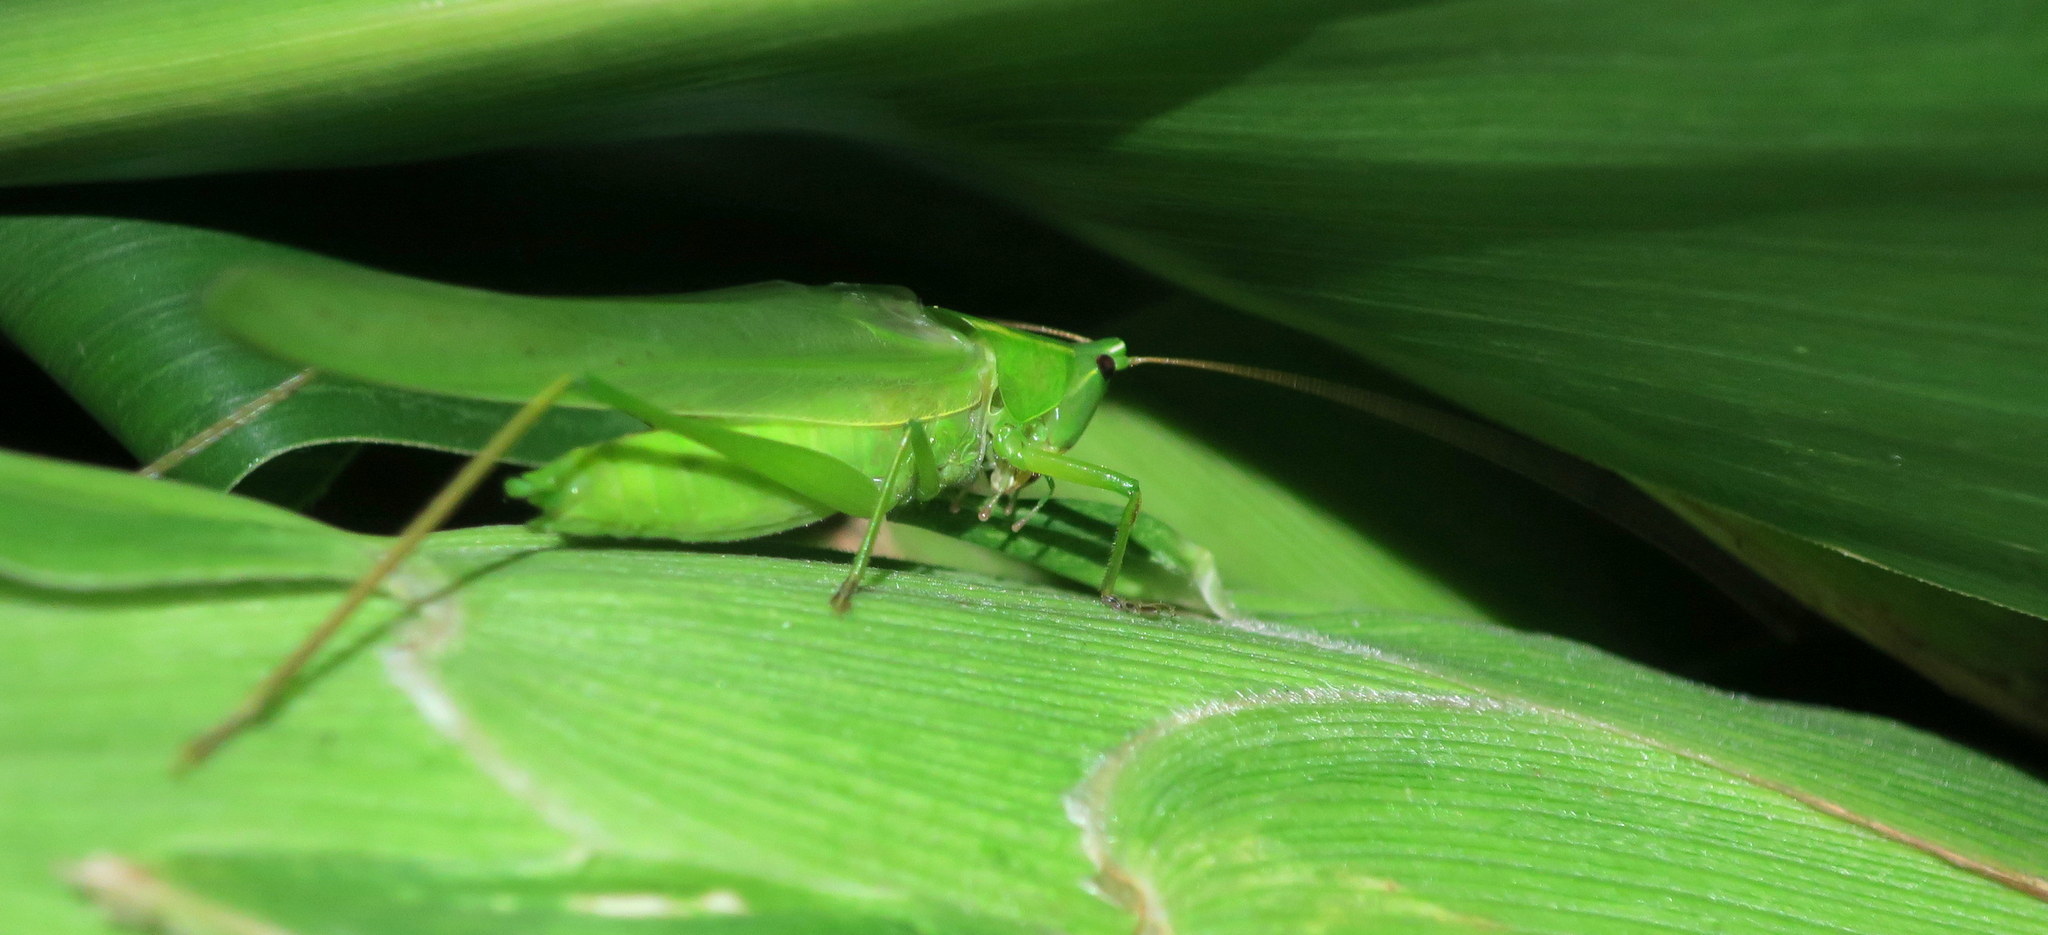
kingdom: Animalia
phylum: Arthropoda
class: Insecta
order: Orthoptera
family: Tettigoniidae
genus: Ruspolia
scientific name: Ruspolia nitidula
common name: Large conehead
